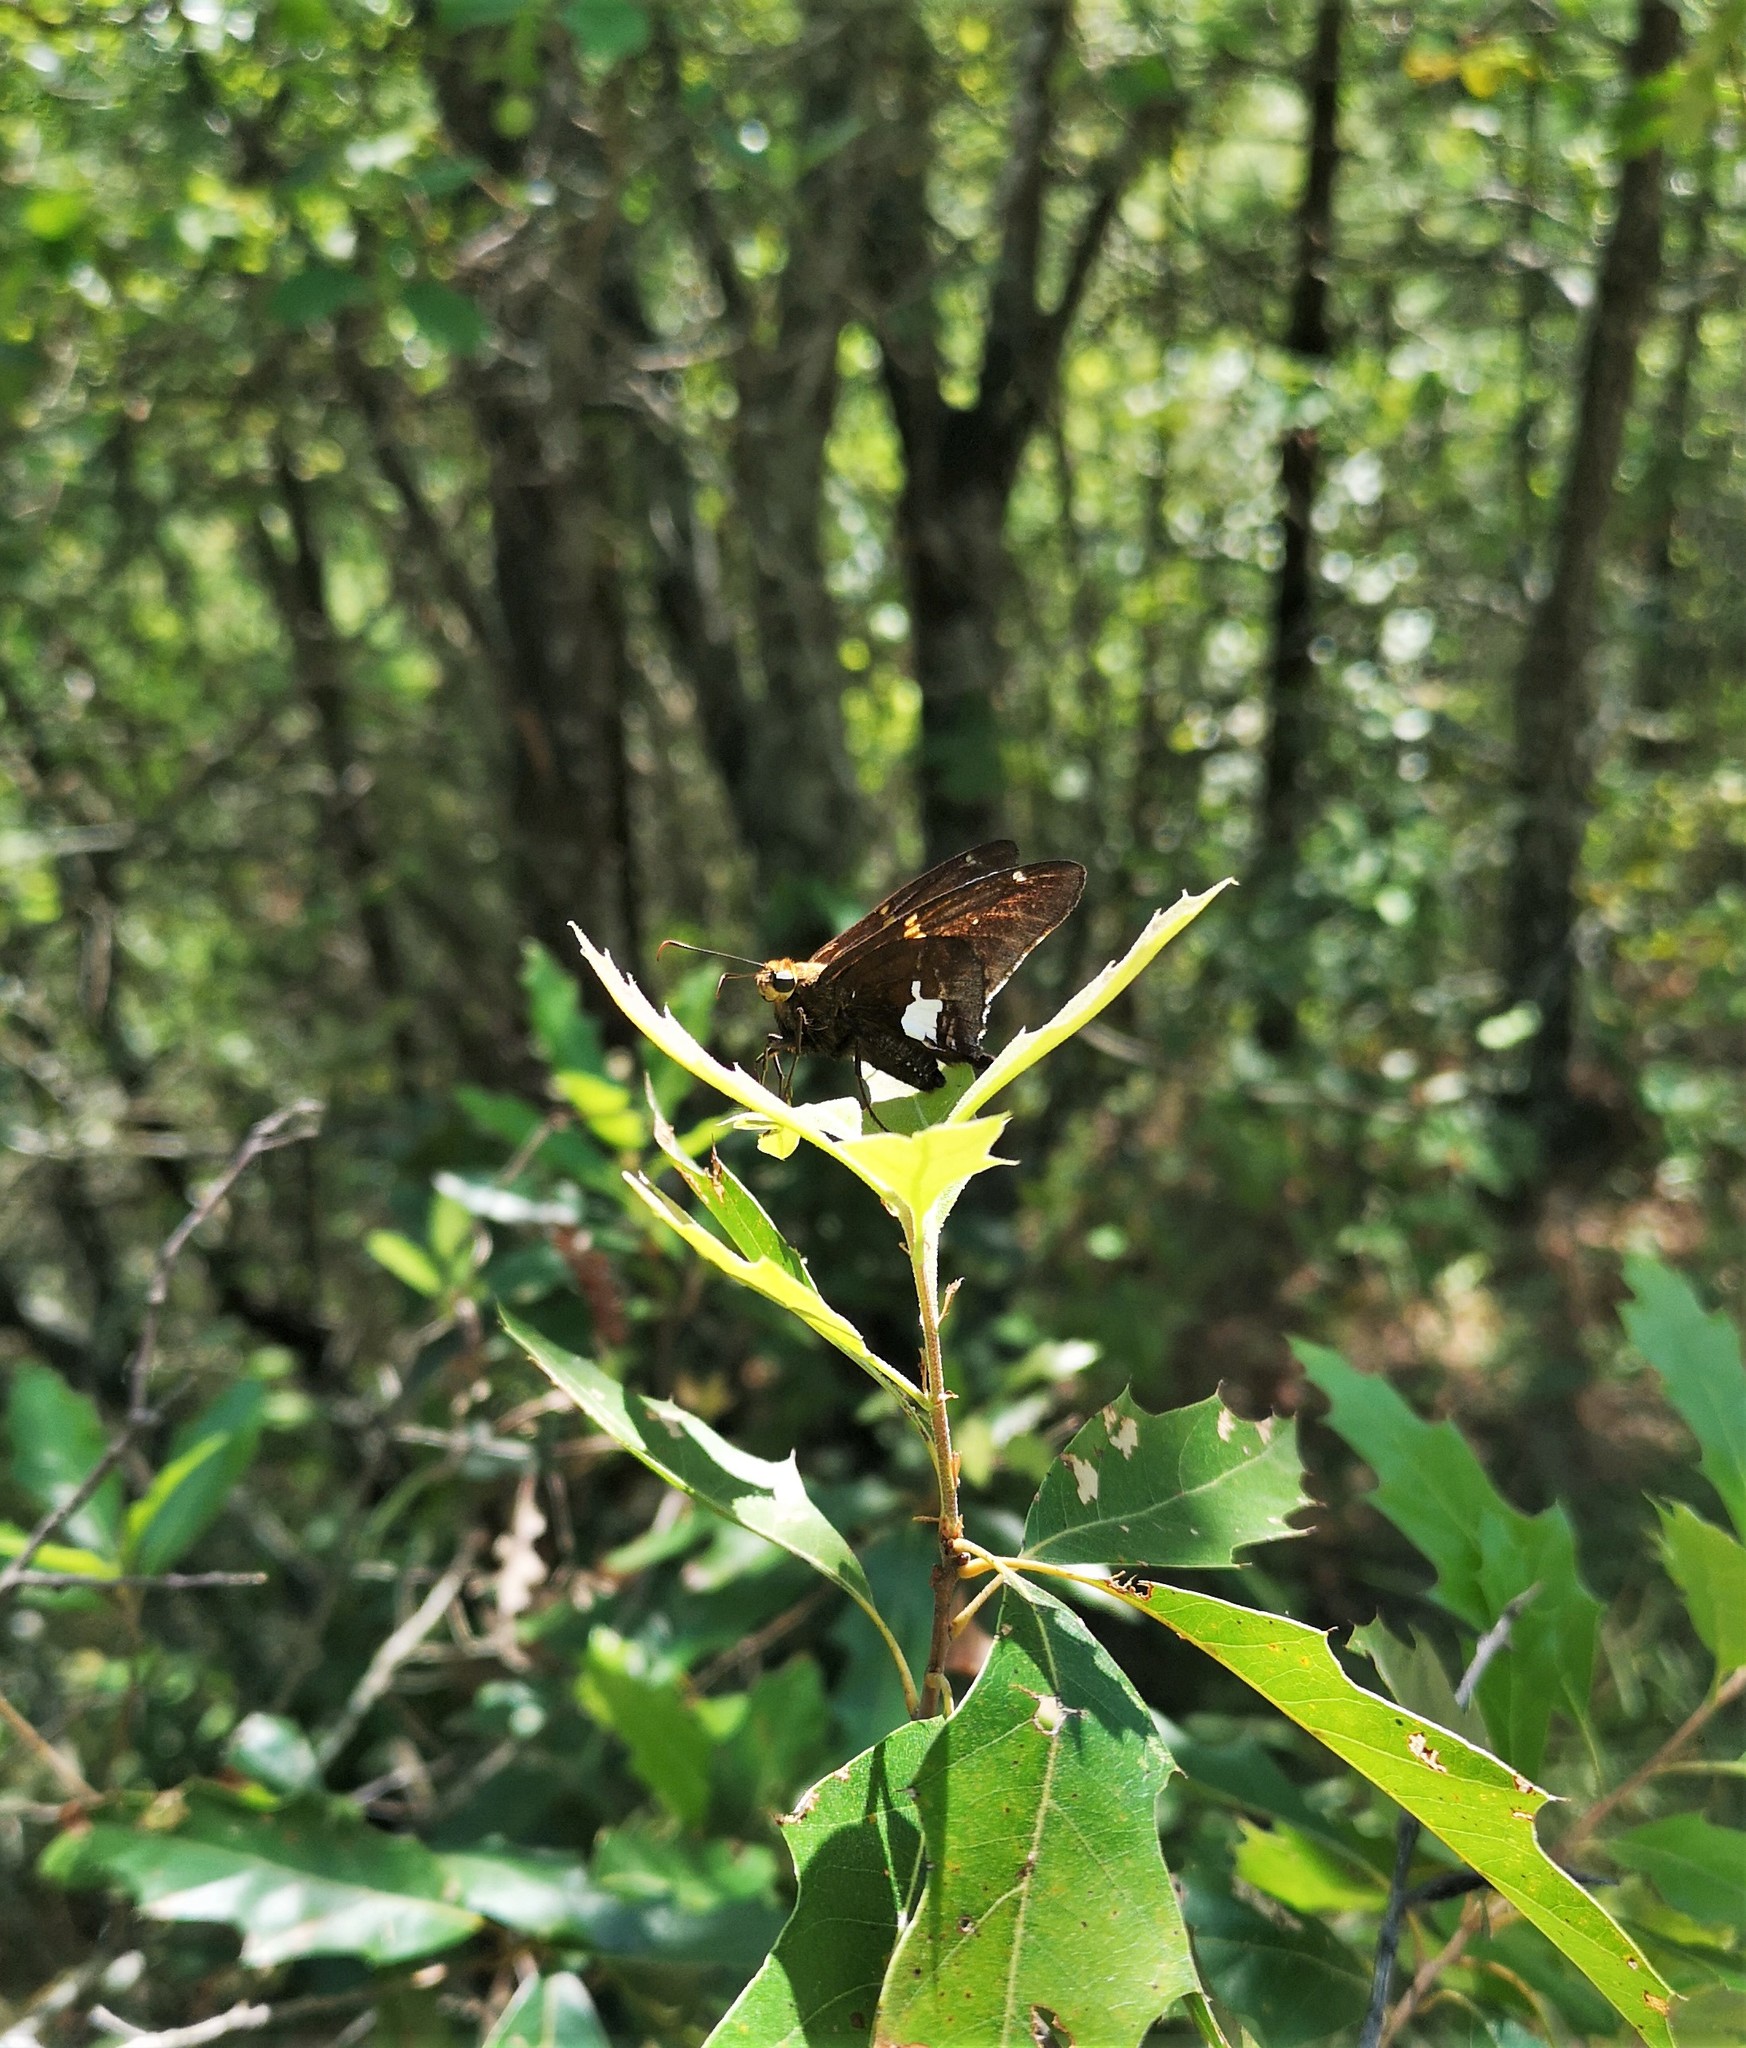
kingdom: Animalia
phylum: Arthropoda
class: Insecta
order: Lepidoptera
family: Hesperiidae
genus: Epargyreus
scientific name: Epargyreus clarus
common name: Silver-spotted skipper
